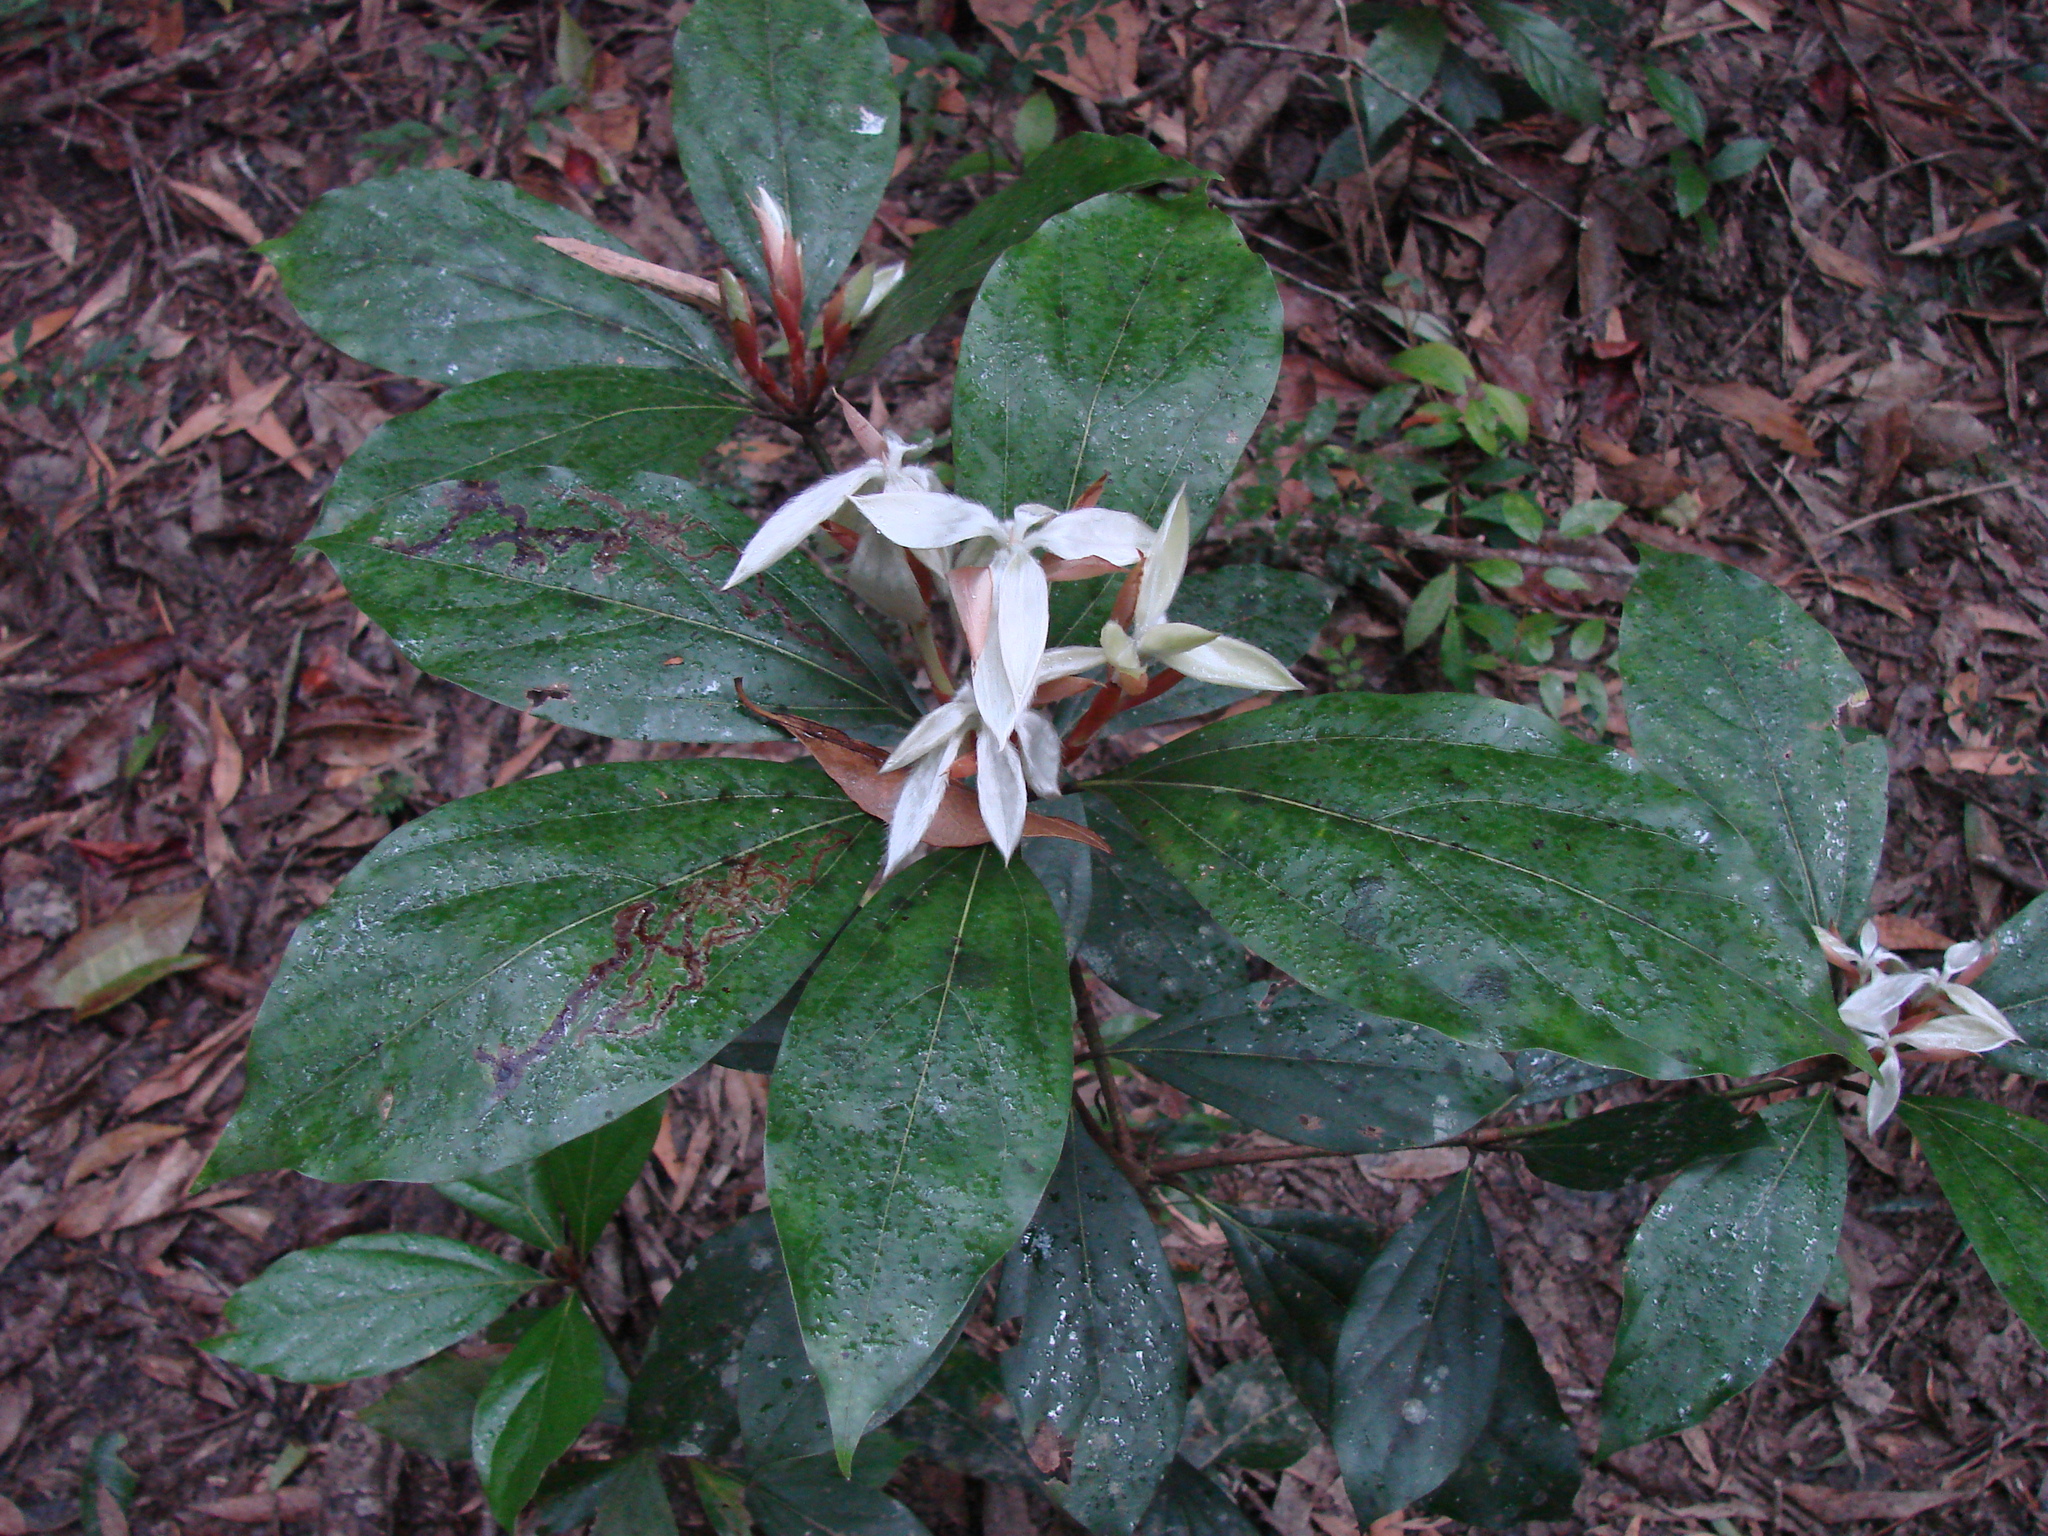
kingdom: Plantae
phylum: Tracheophyta
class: Magnoliopsida
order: Laurales
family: Lauraceae
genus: Neolitsea
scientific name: Neolitsea dealbata
